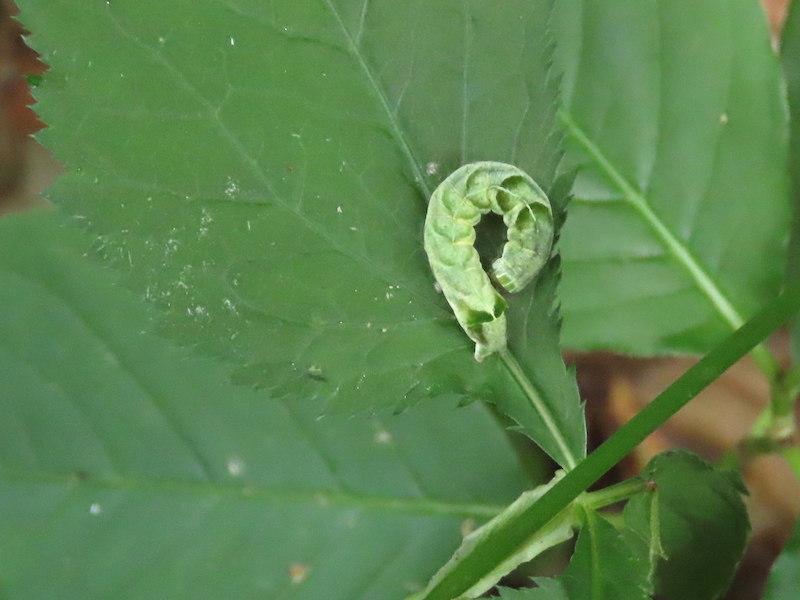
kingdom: Animalia
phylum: Arthropoda
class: Insecta
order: Lepidoptera
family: Noctuidae
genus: Melanchra
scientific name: Melanchra adjuncta
